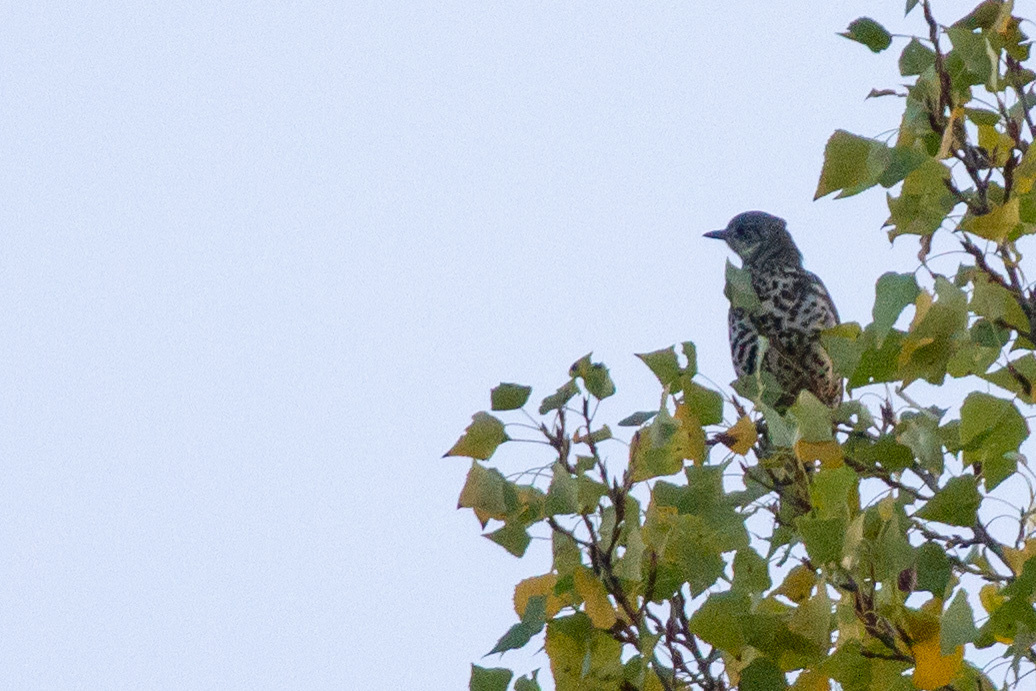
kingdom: Animalia
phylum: Chordata
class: Aves
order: Passeriformes
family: Turdidae
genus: Turdus
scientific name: Turdus viscivorus
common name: Mistle thrush
